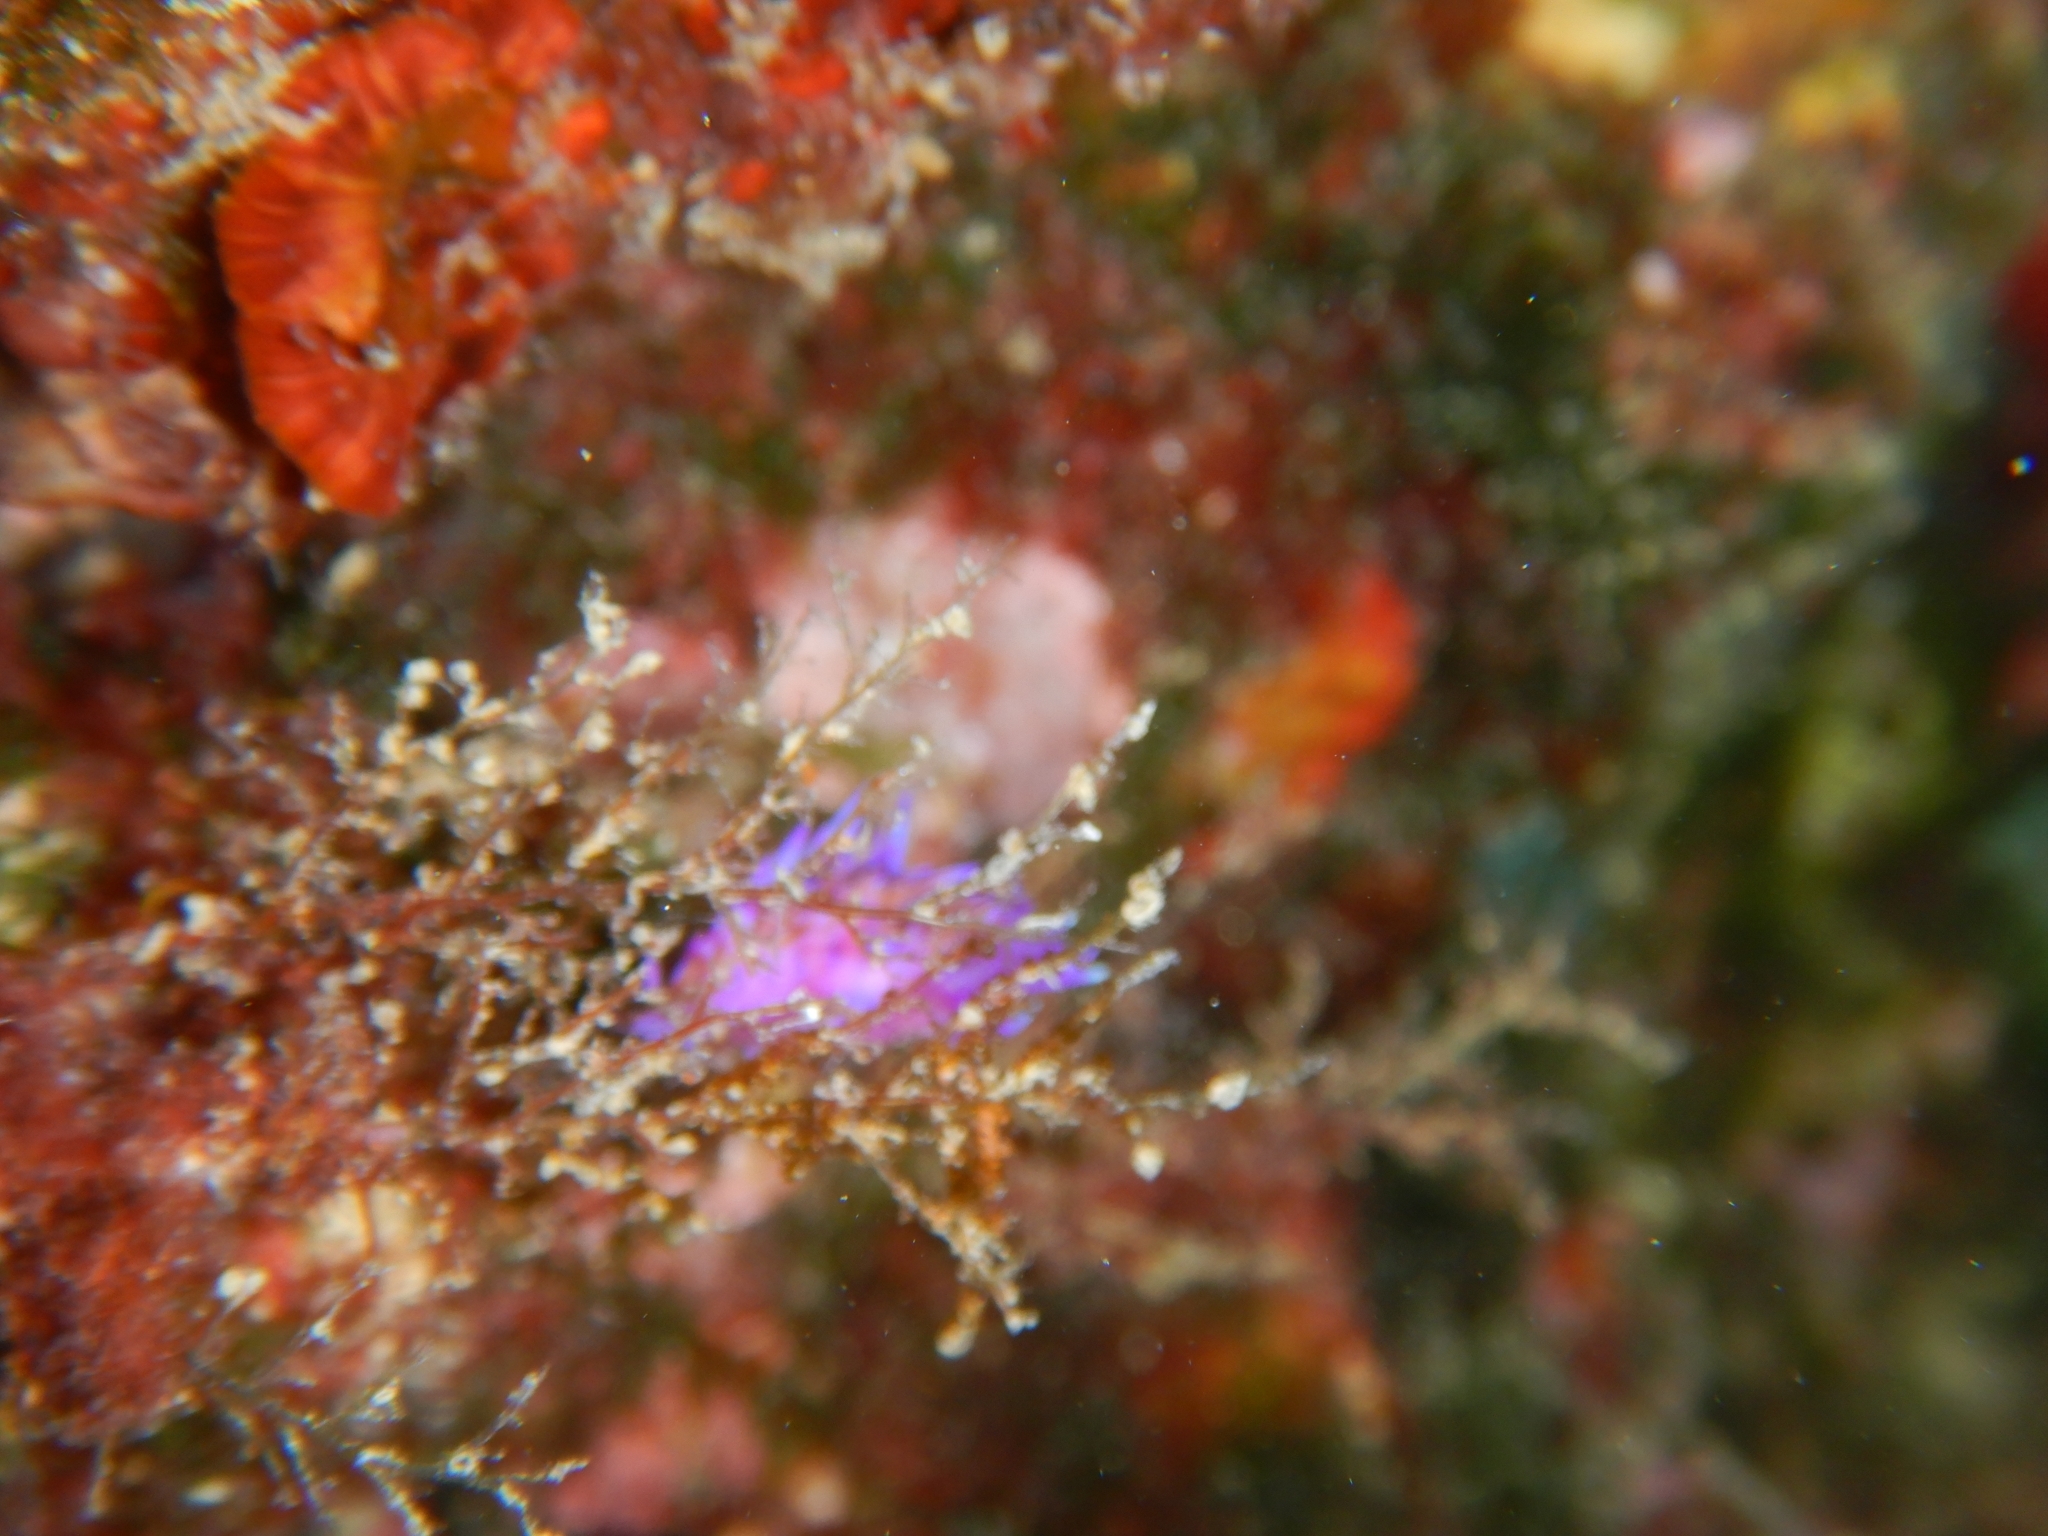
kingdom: Animalia
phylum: Mollusca
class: Gastropoda
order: Nudibranchia
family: Flabellinidae
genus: Flabellina
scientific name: Flabellina affinis
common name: Mediterranean violet aeolid
